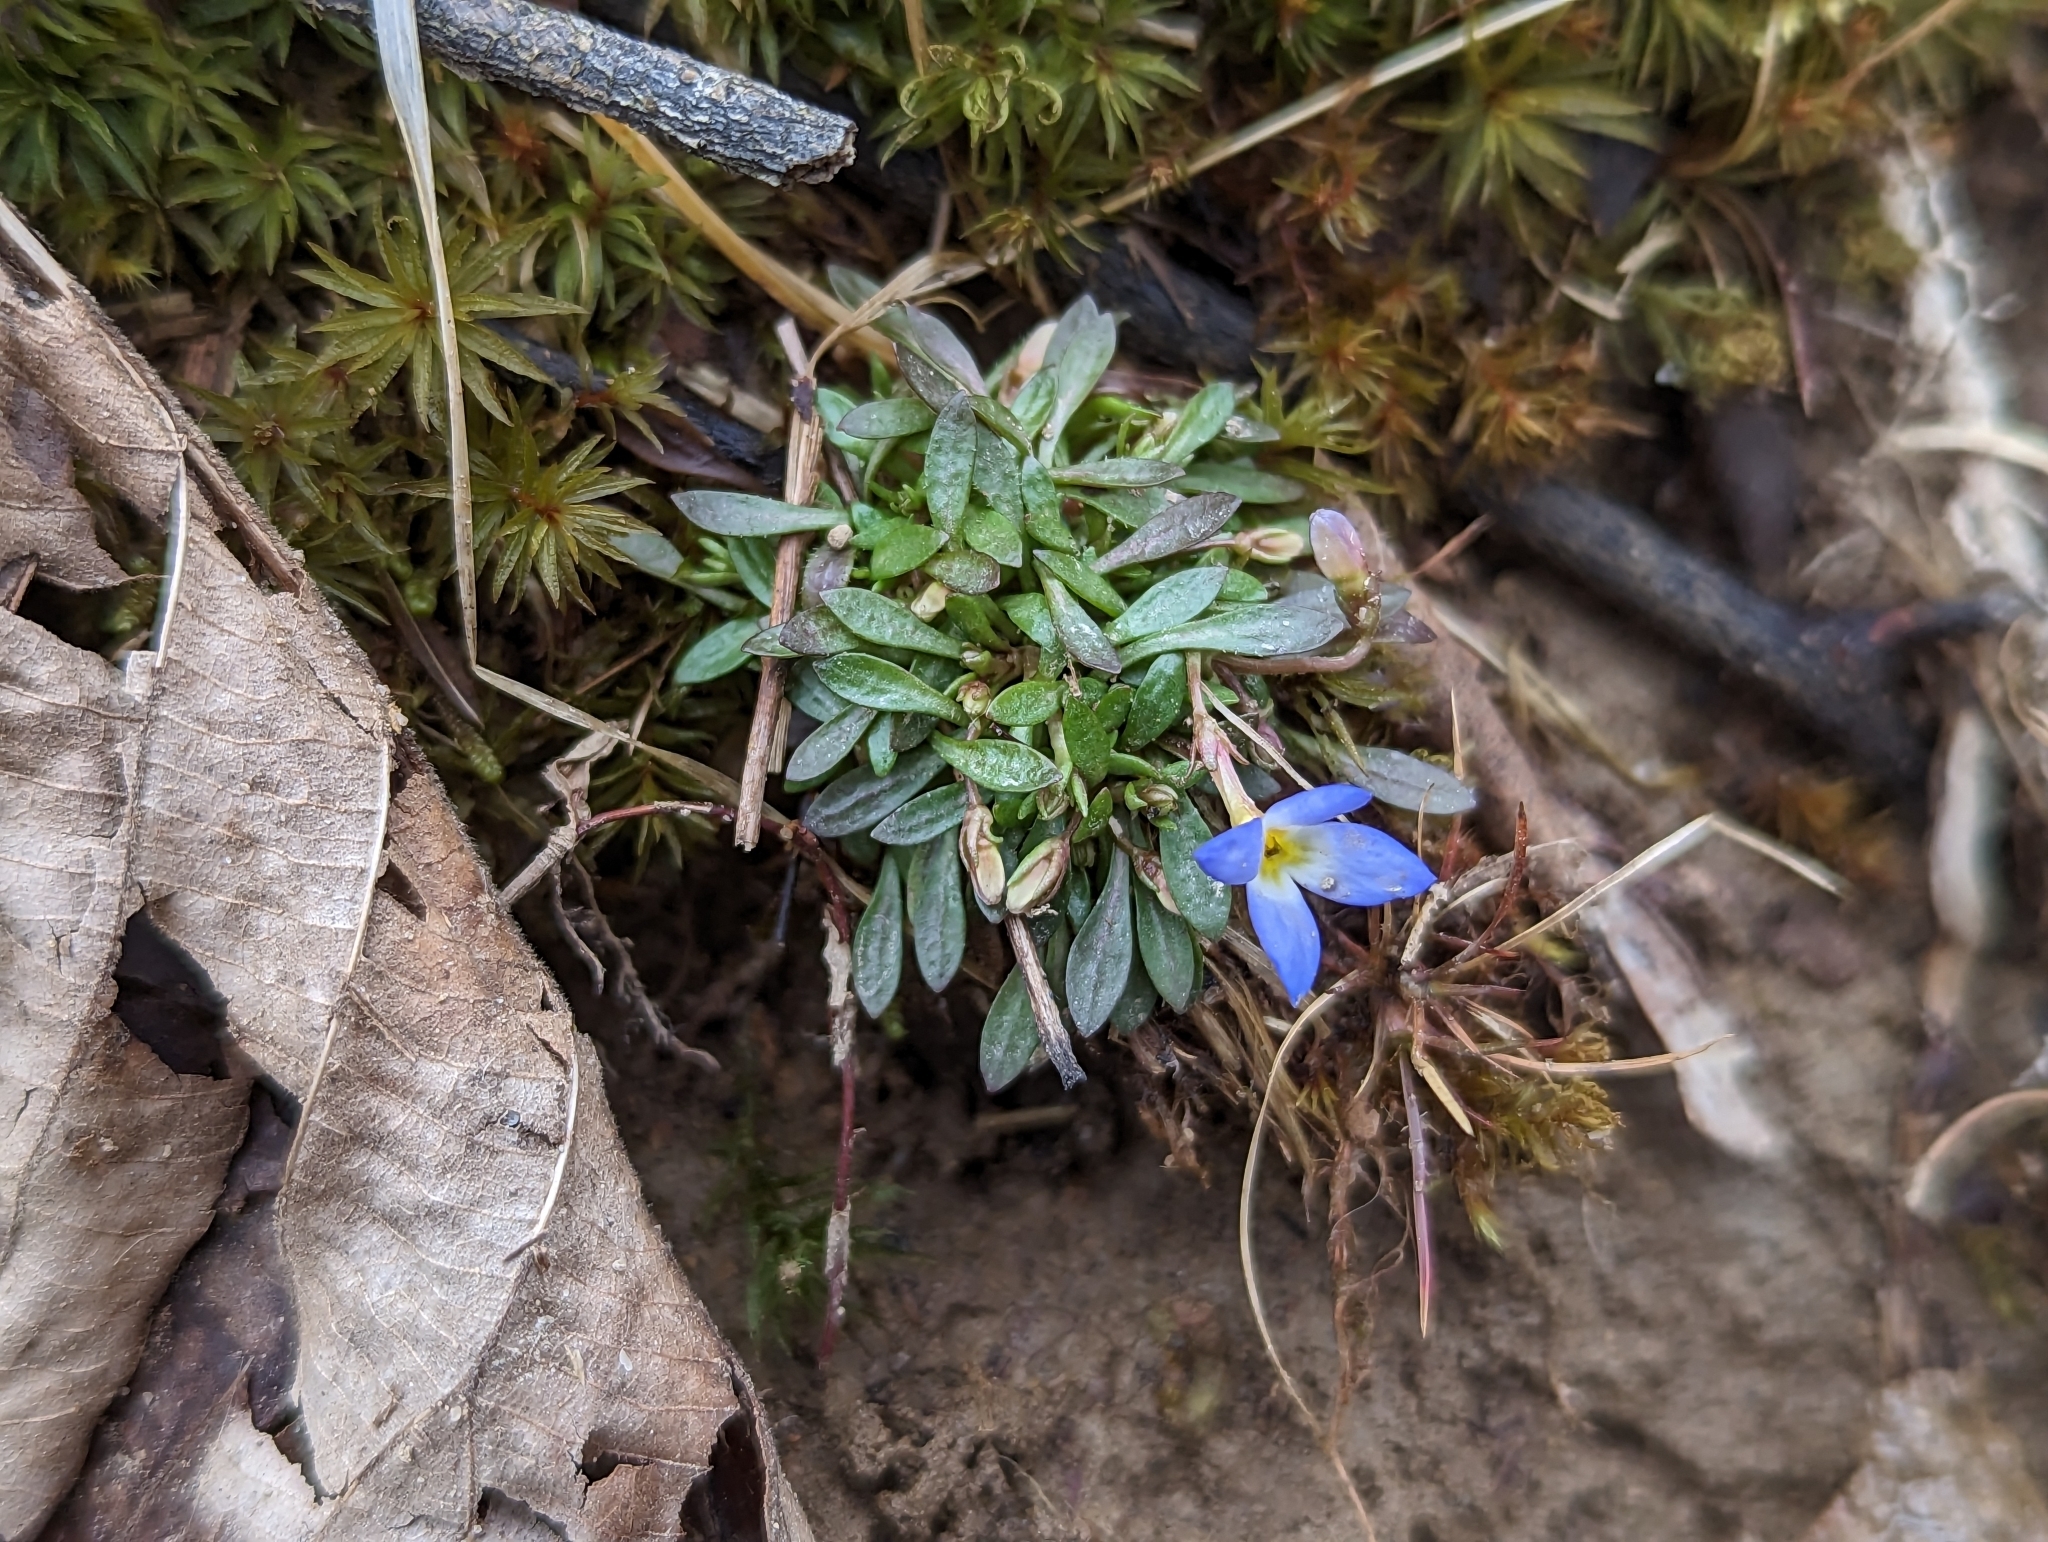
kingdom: Plantae
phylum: Tracheophyta
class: Magnoliopsida
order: Gentianales
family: Rubiaceae
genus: Houstonia
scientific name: Houstonia caerulea
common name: Bluets
